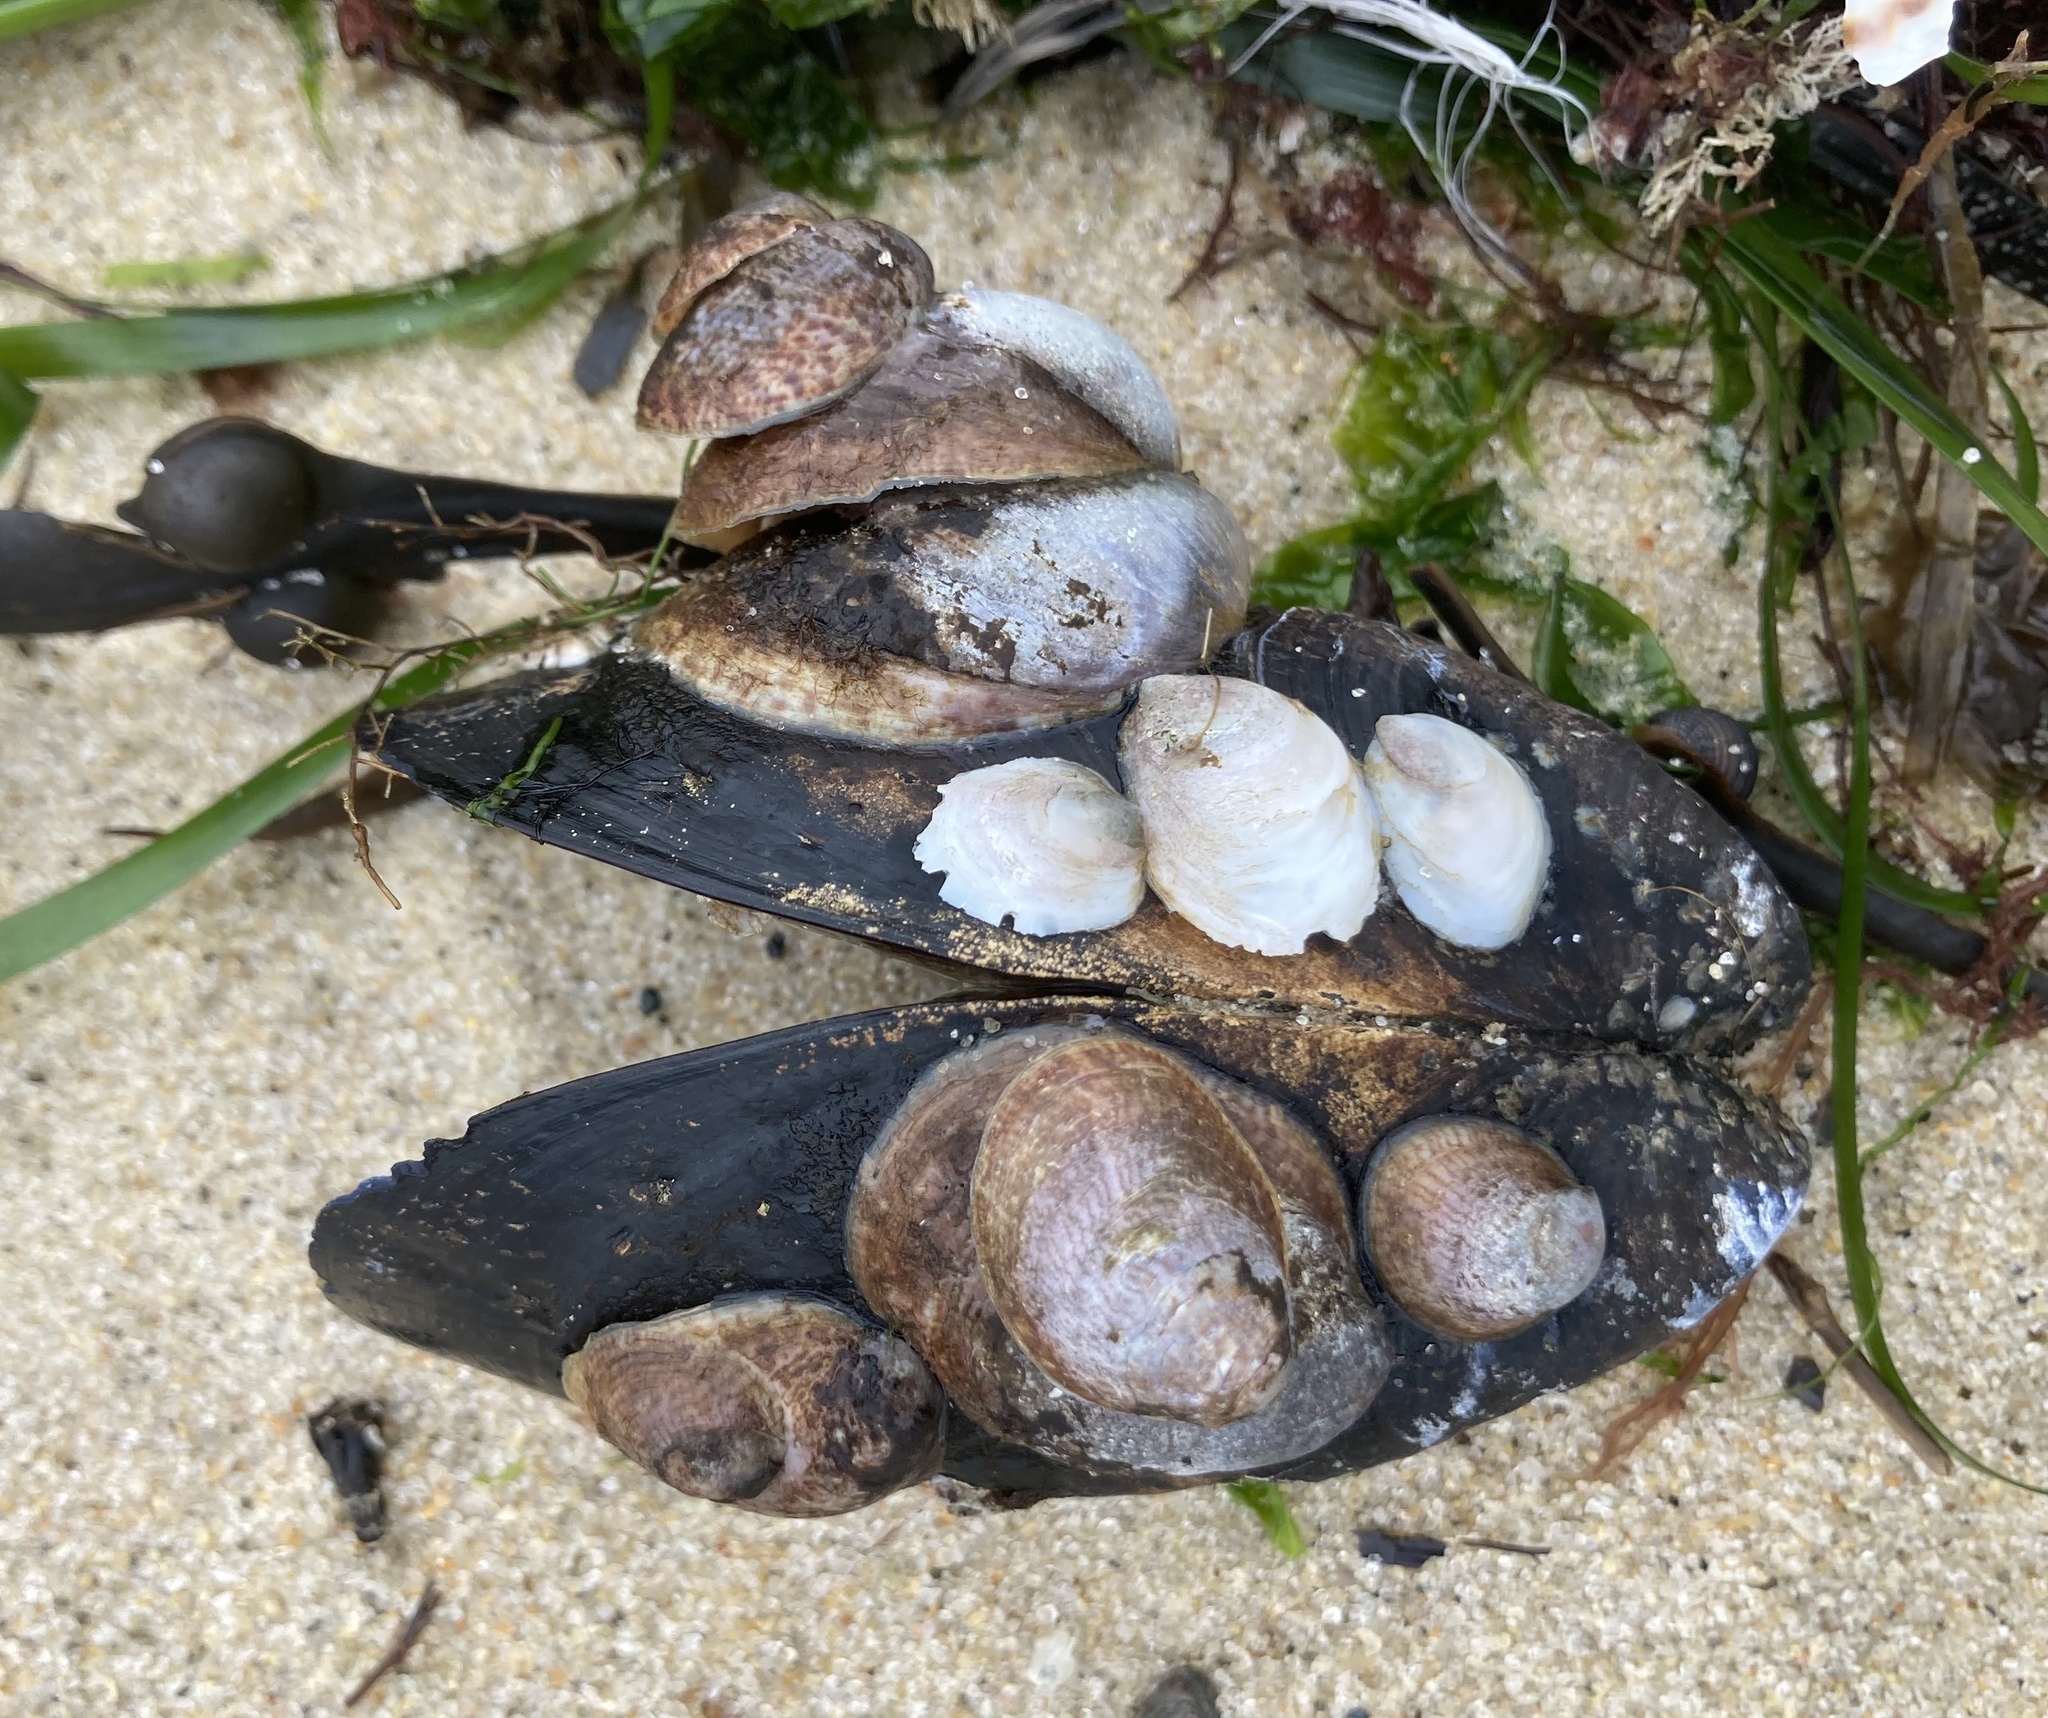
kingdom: Animalia
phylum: Mollusca
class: Gastropoda
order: Littorinimorpha
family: Calyptraeidae
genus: Crepidula
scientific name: Crepidula fornicata
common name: Slipper limpet
